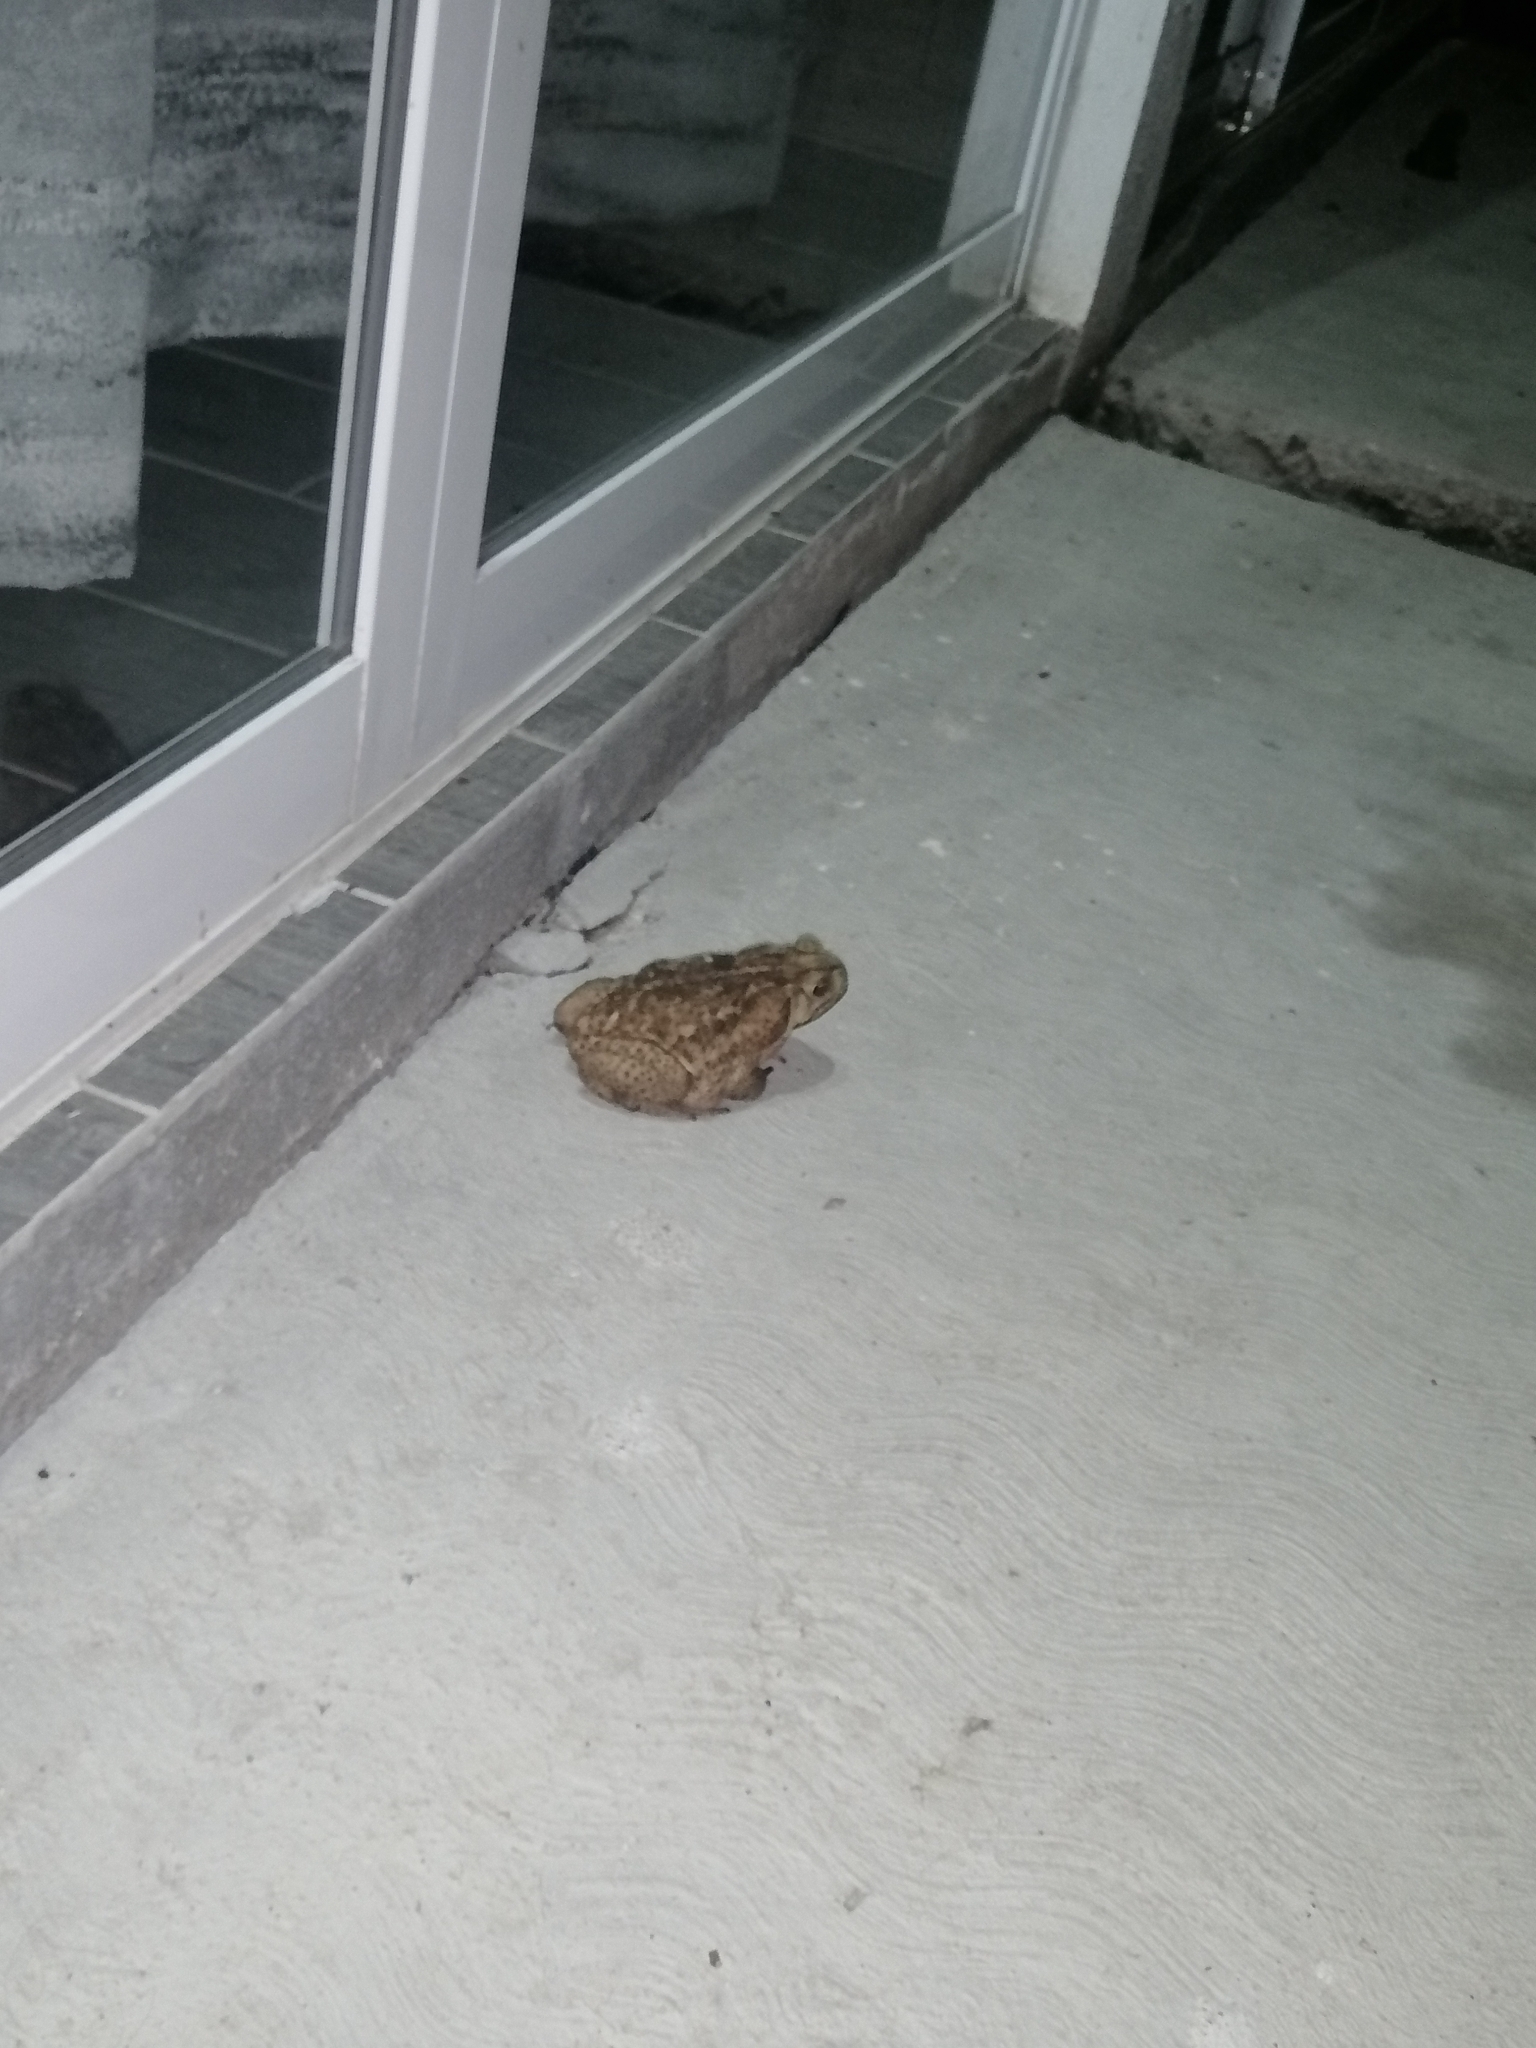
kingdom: Animalia
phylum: Chordata
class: Amphibia
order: Anura
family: Bufonidae
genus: Rhinella
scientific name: Rhinella horribilis
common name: Mesoamerican cane toad
